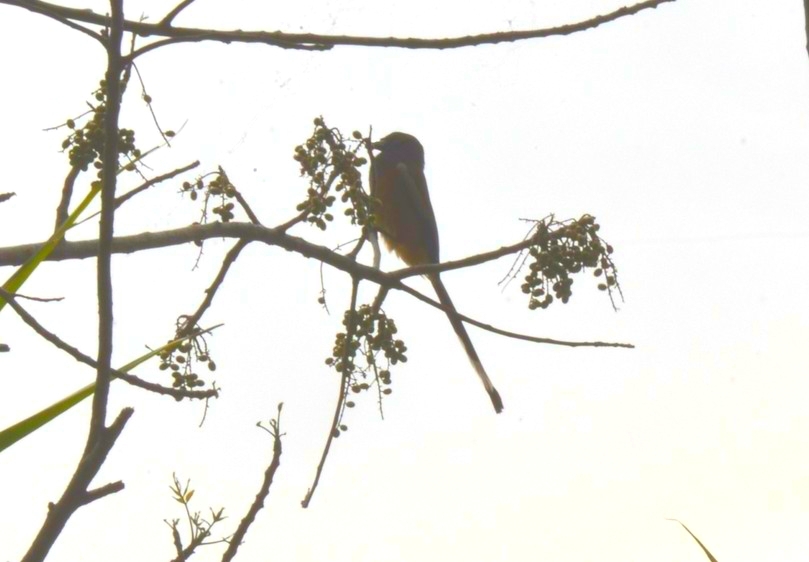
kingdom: Animalia
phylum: Chordata
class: Aves
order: Passeriformes
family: Corvidae
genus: Dendrocitta
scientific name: Dendrocitta vagabunda
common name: Rufous treepie
